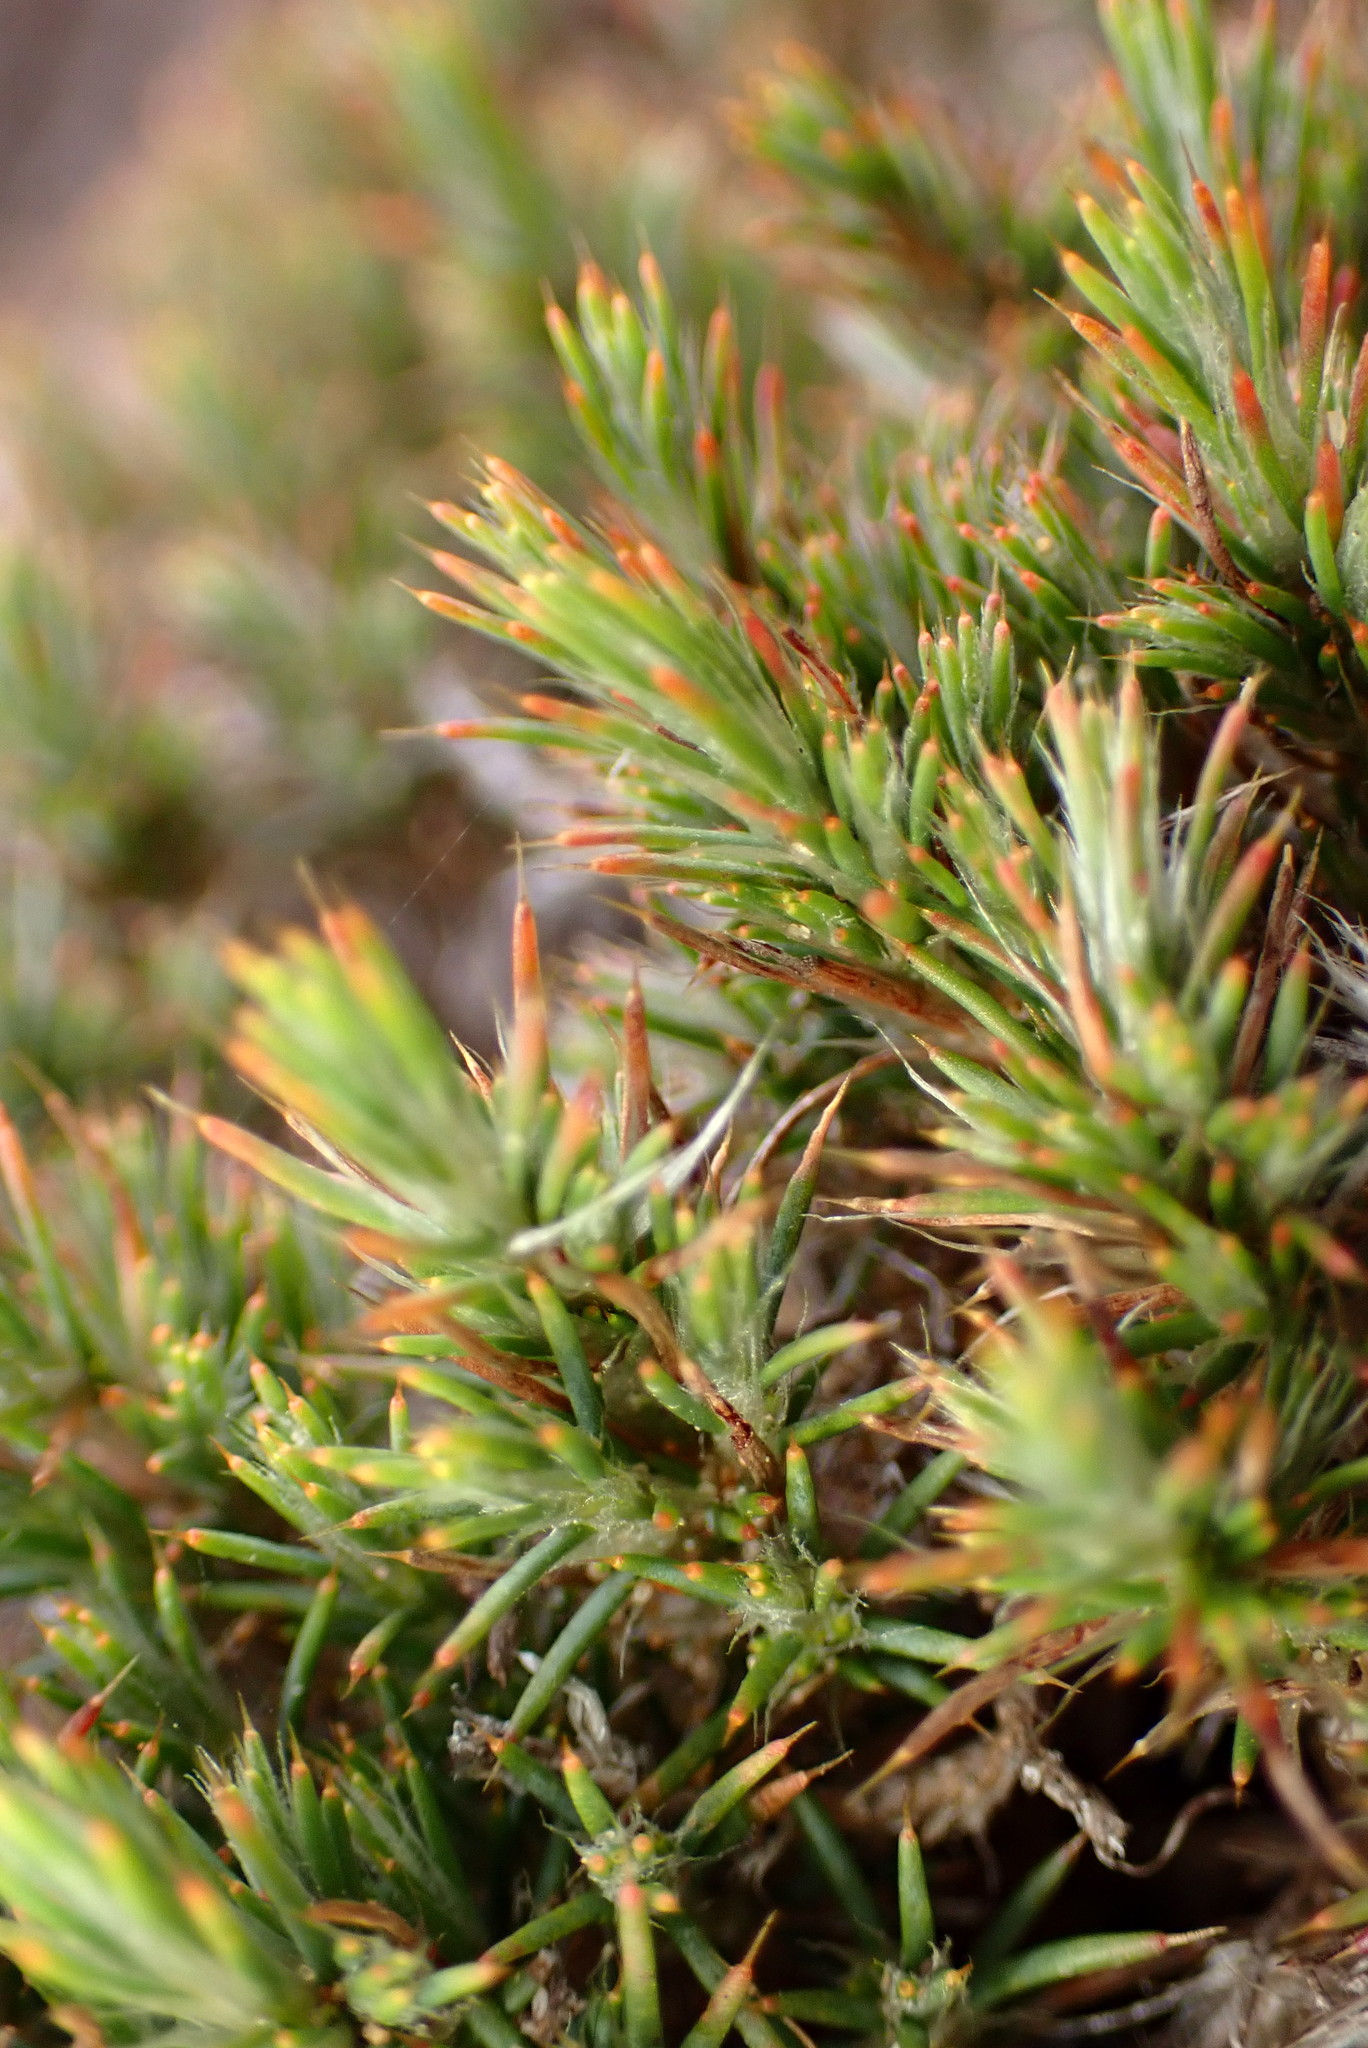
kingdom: Plantae
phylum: Tracheophyta
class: Magnoliopsida
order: Caryophyllales
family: Caryophyllaceae
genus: Cardionema
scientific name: Cardionema ramosissima
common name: Sandcarpet
